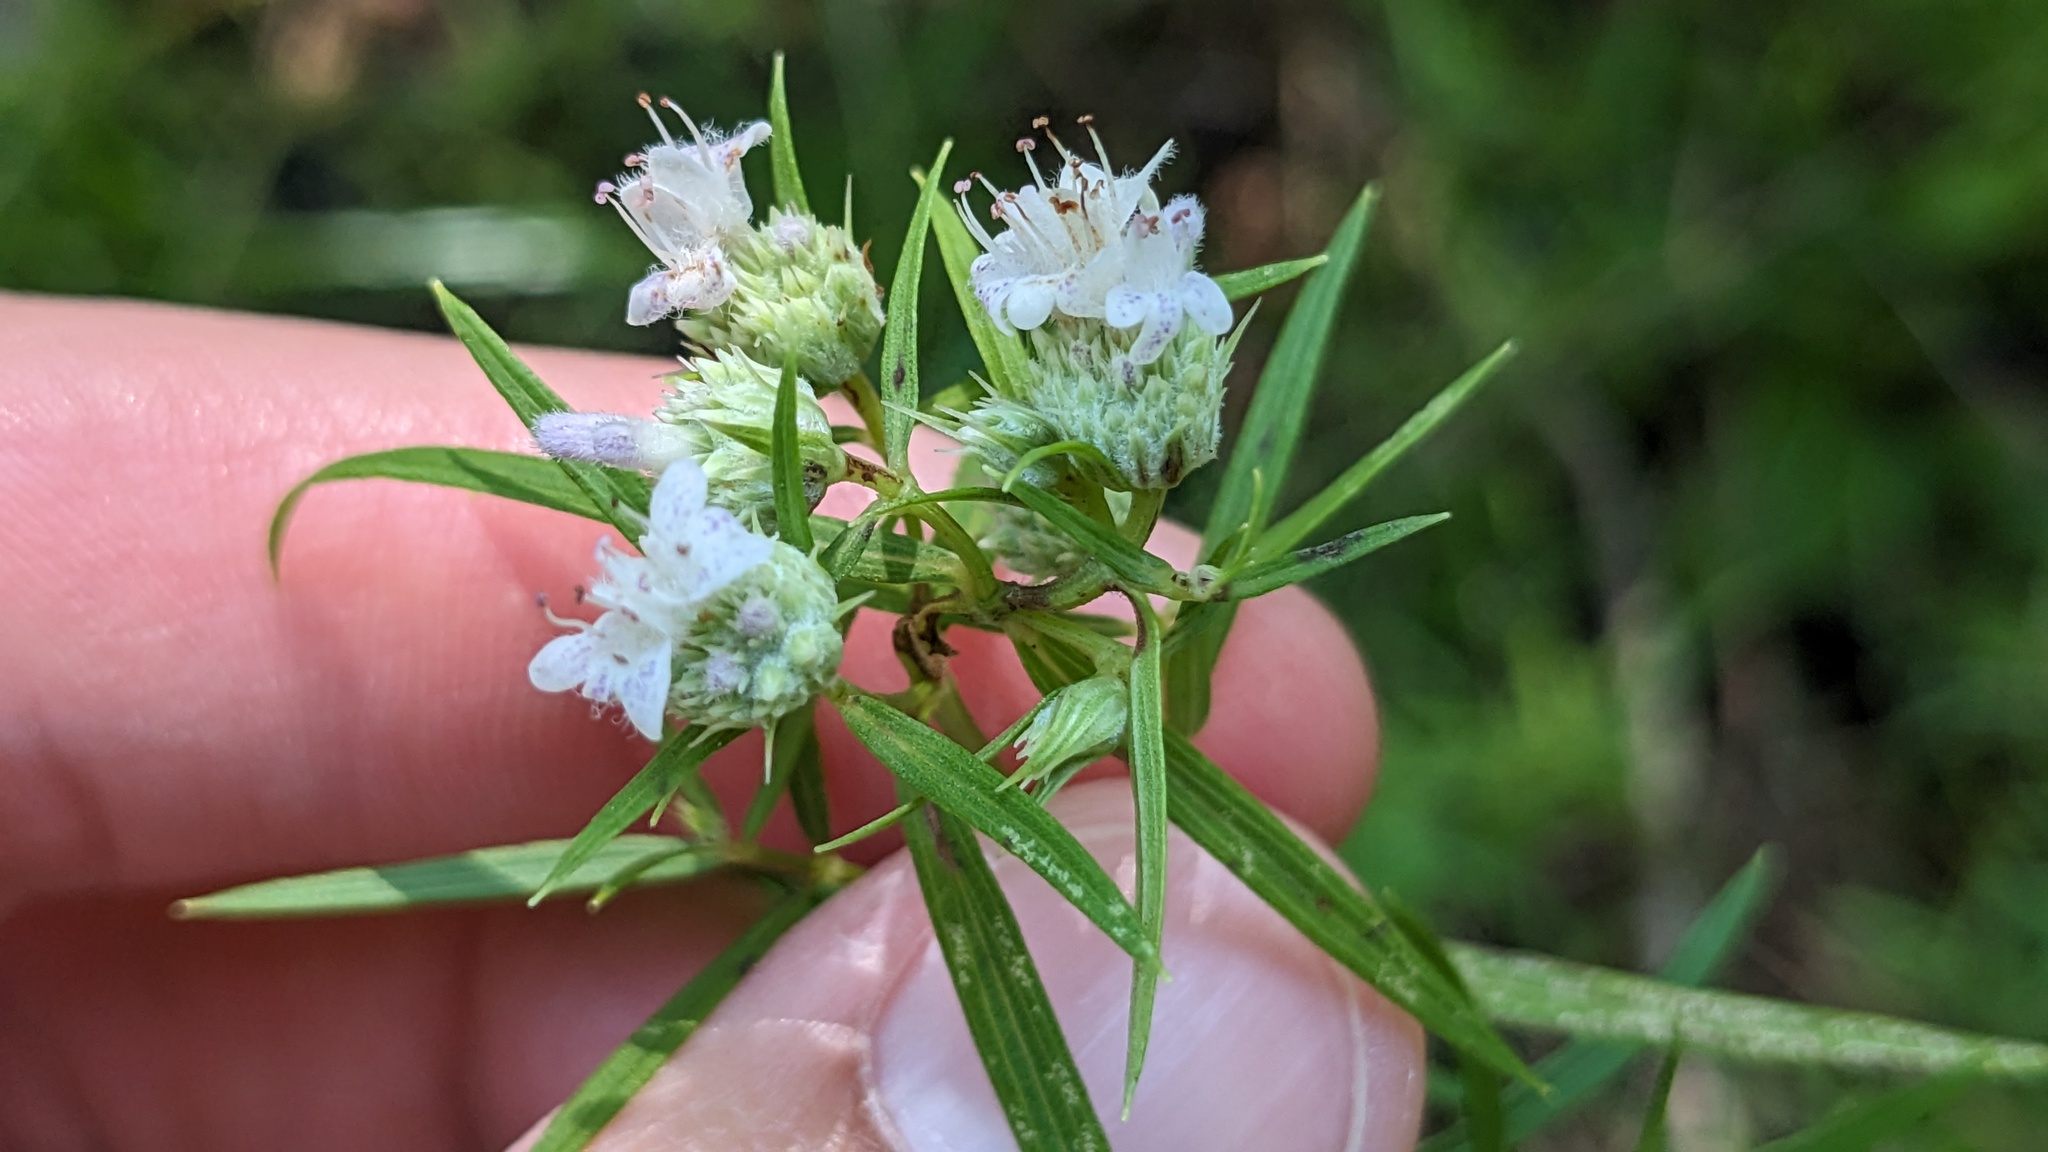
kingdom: Plantae
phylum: Tracheophyta
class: Magnoliopsida
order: Lamiales
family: Lamiaceae
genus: Pycnanthemum
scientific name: Pycnanthemum tenuifolium
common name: Narrow-leaf mountain-mint
